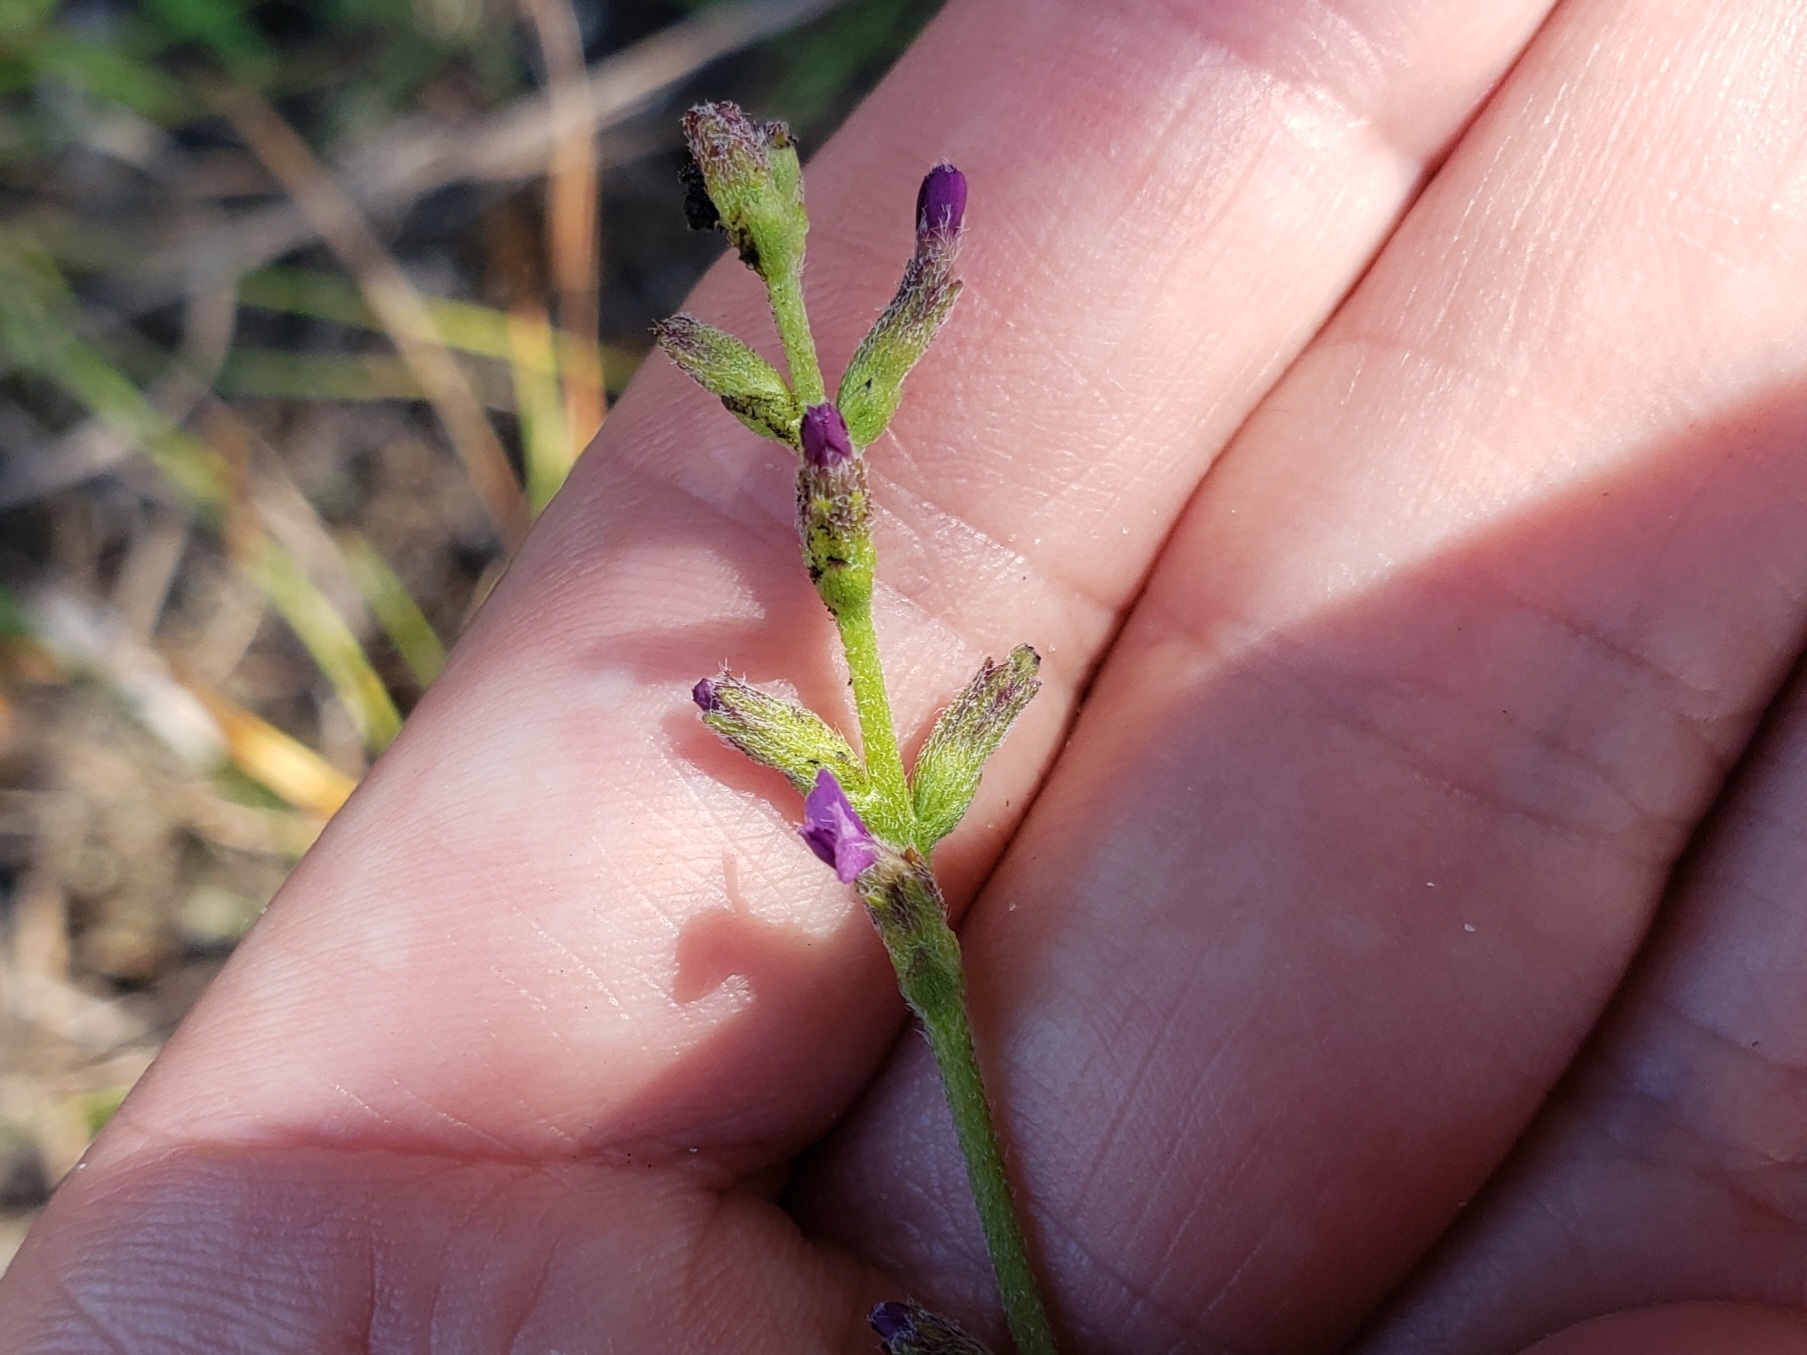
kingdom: Plantae
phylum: Tracheophyta
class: Magnoliopsida
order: Lamiales
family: Orobanchaceae
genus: Buchnera
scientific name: Buchnera floridana
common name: Florida bluehearts
